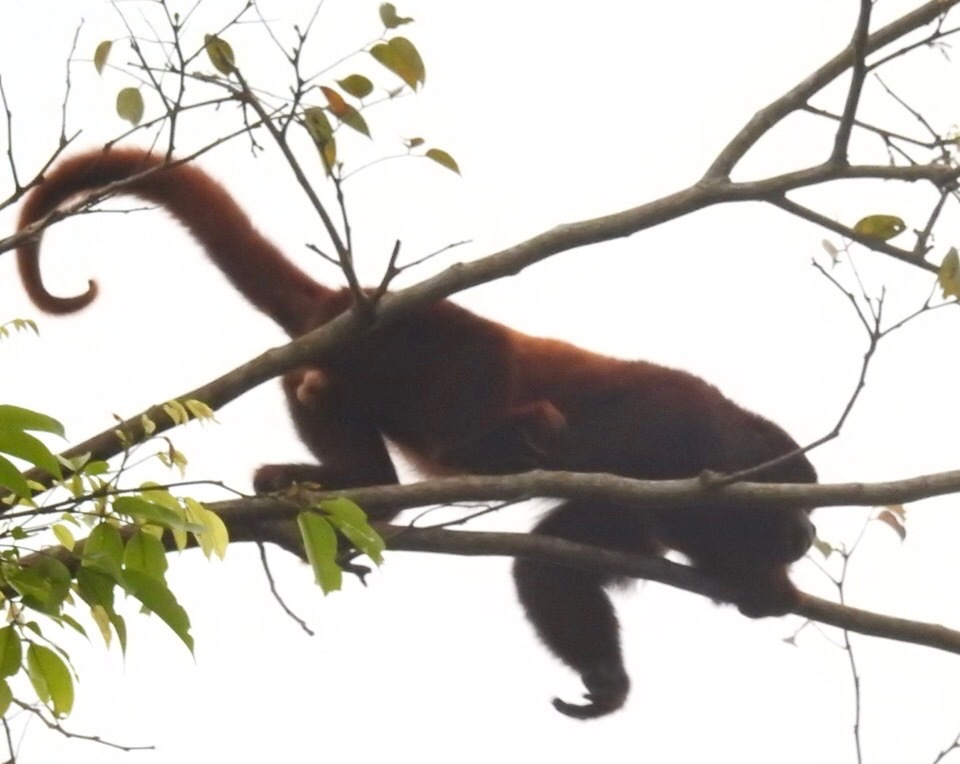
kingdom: Animalia
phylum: Chordata
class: Mammalia
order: Primates
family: Atelidae
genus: Alouatta
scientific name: Alouatta seniculus
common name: Venezuelan red howler
